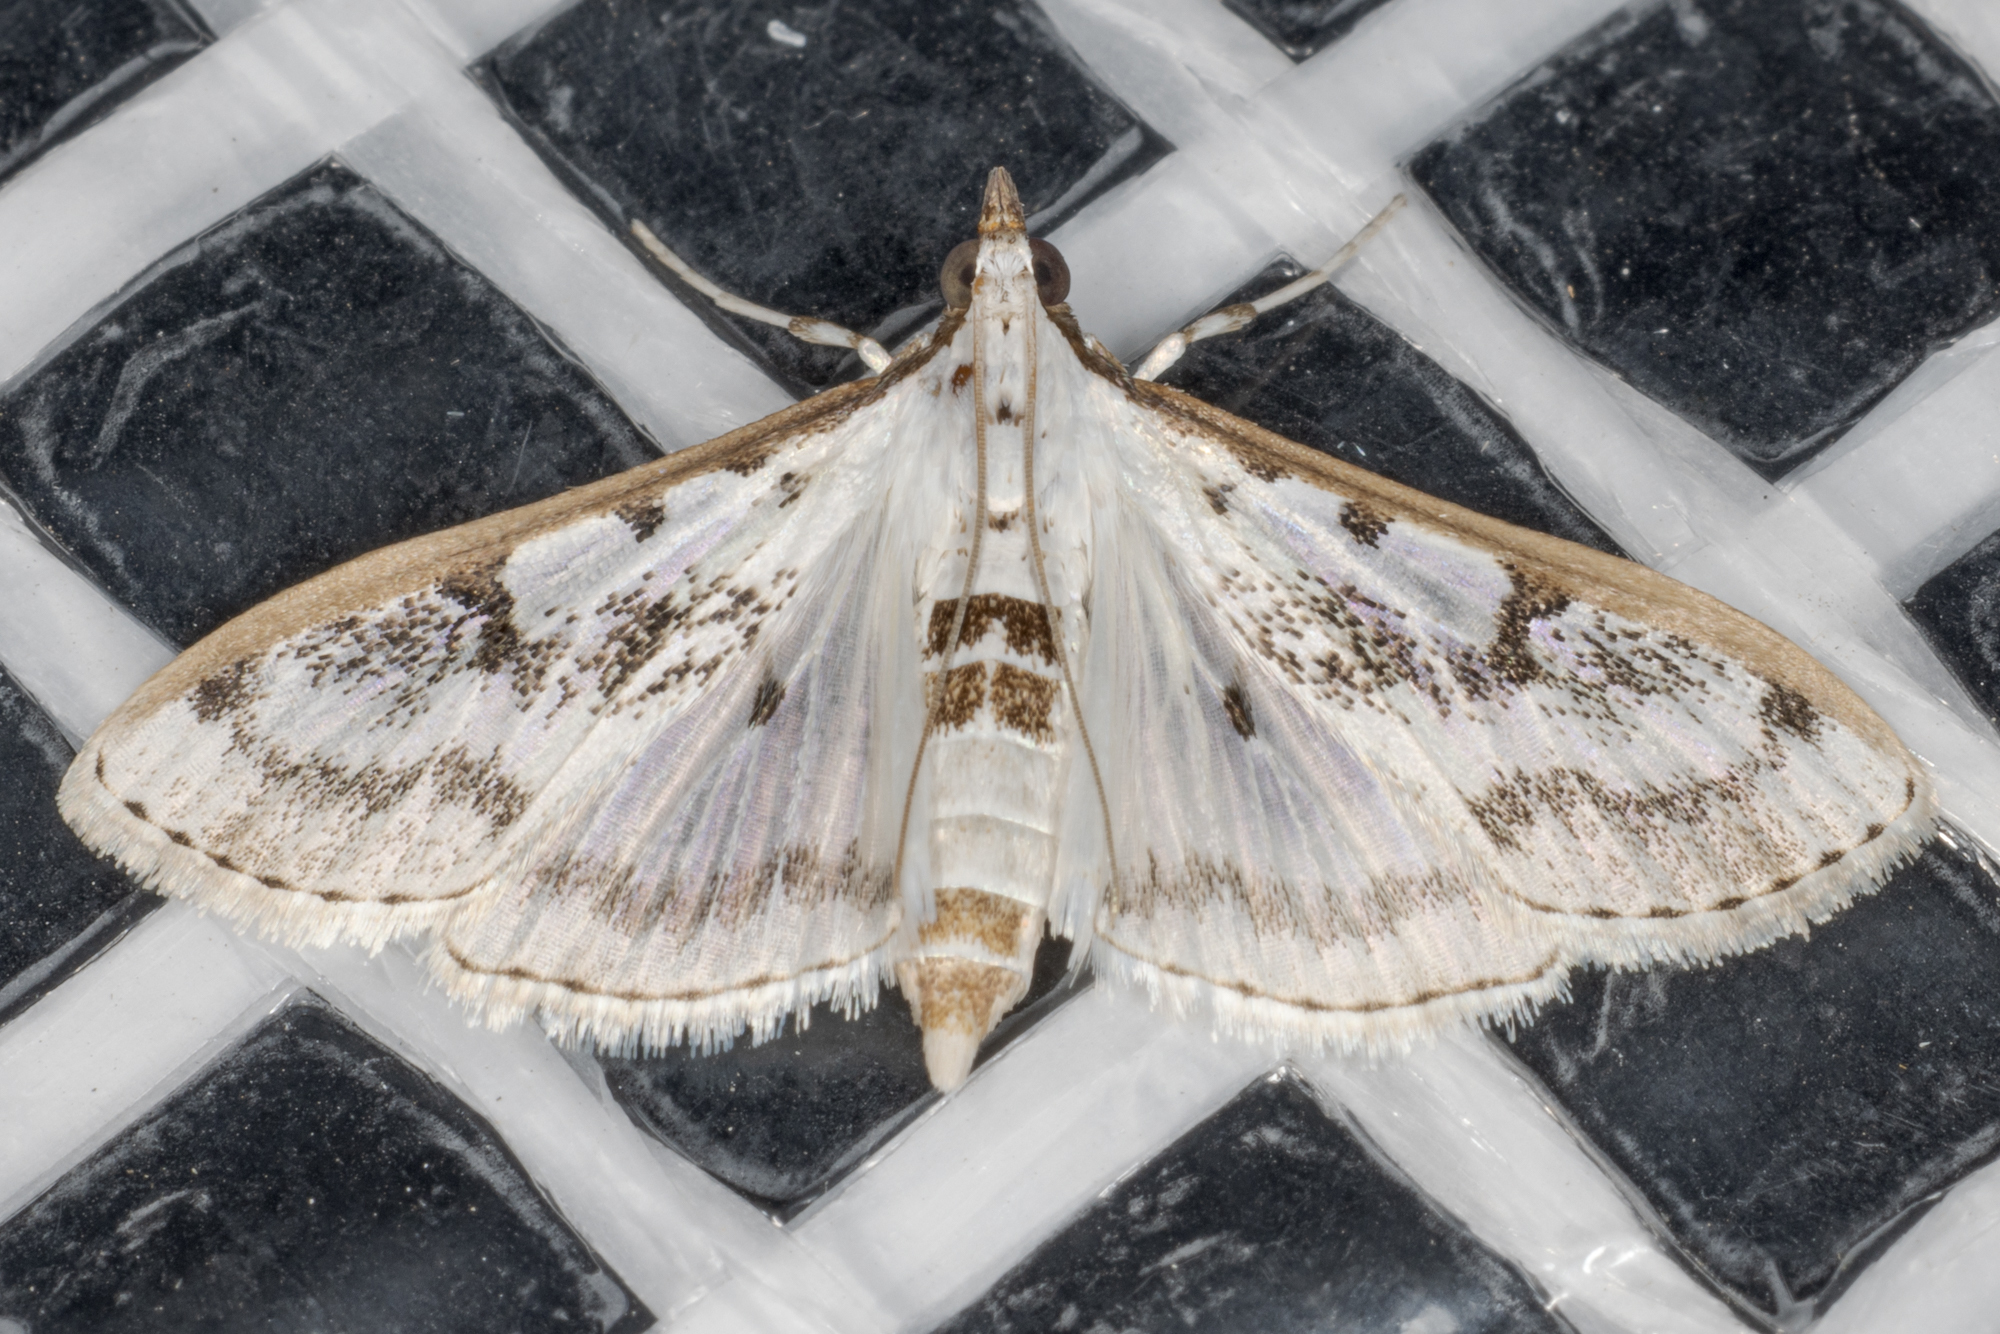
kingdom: Animalia
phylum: Arthropoda
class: Insecta
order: Lepidoptera
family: Crambidae
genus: Palpita
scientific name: Palpita gracilalis
